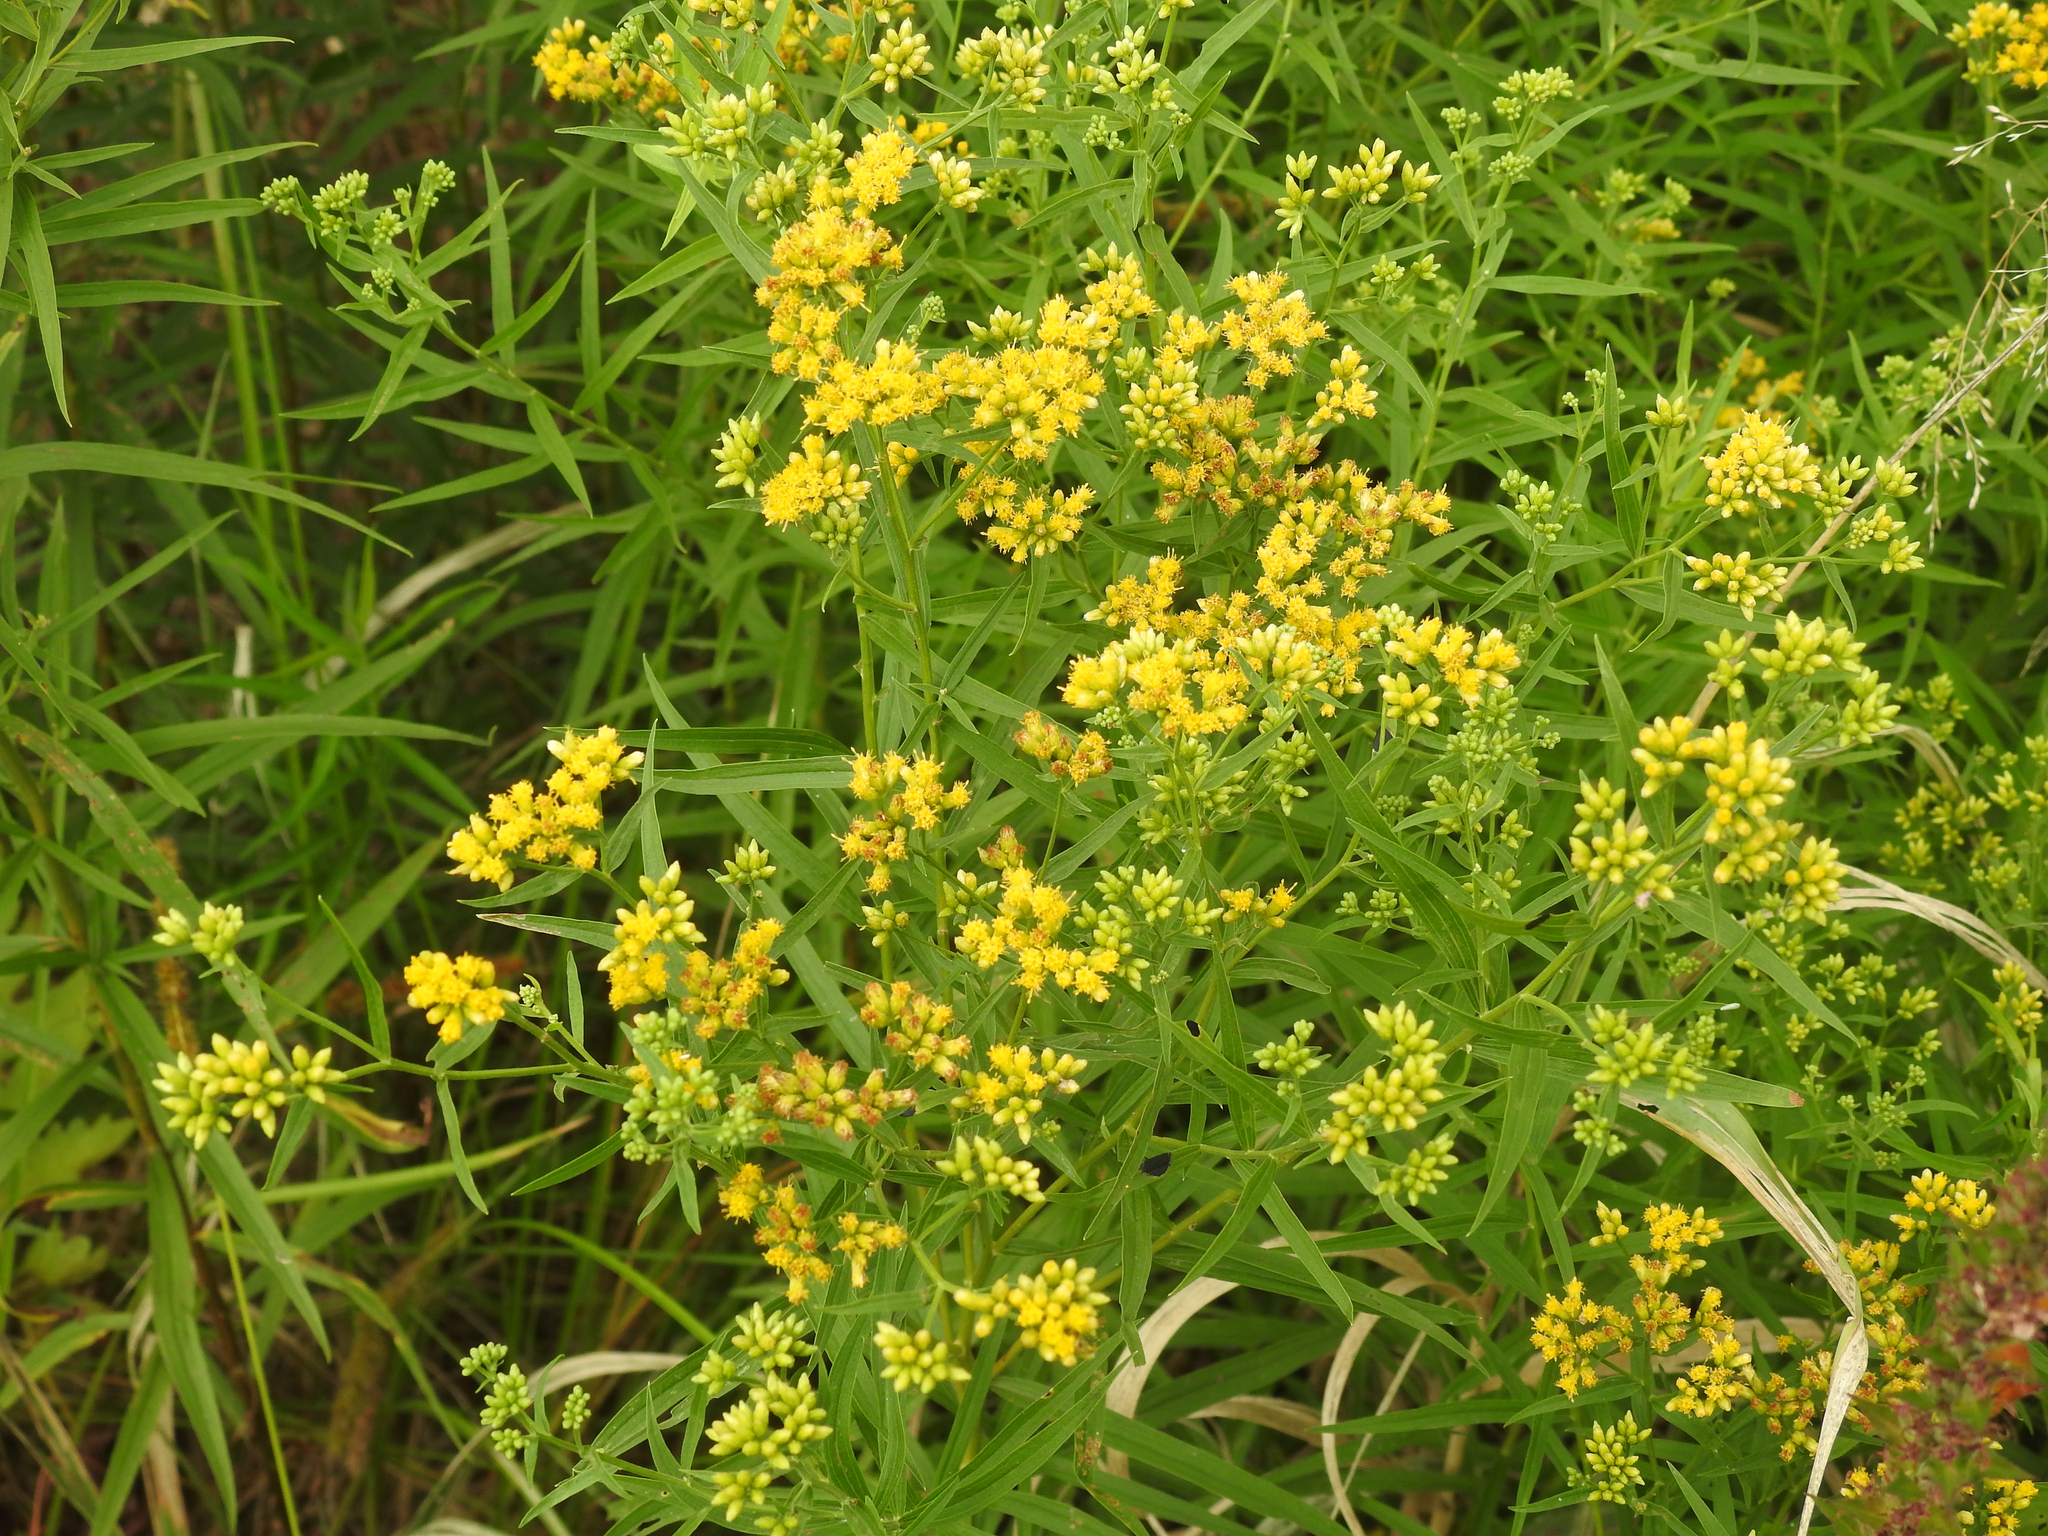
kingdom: Plantae
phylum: Tracheophyta
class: Magnoliopsida
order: Asterales
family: Asteraceae
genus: Euthamia
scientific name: Euthamia graminifolia
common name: Common goldentop
